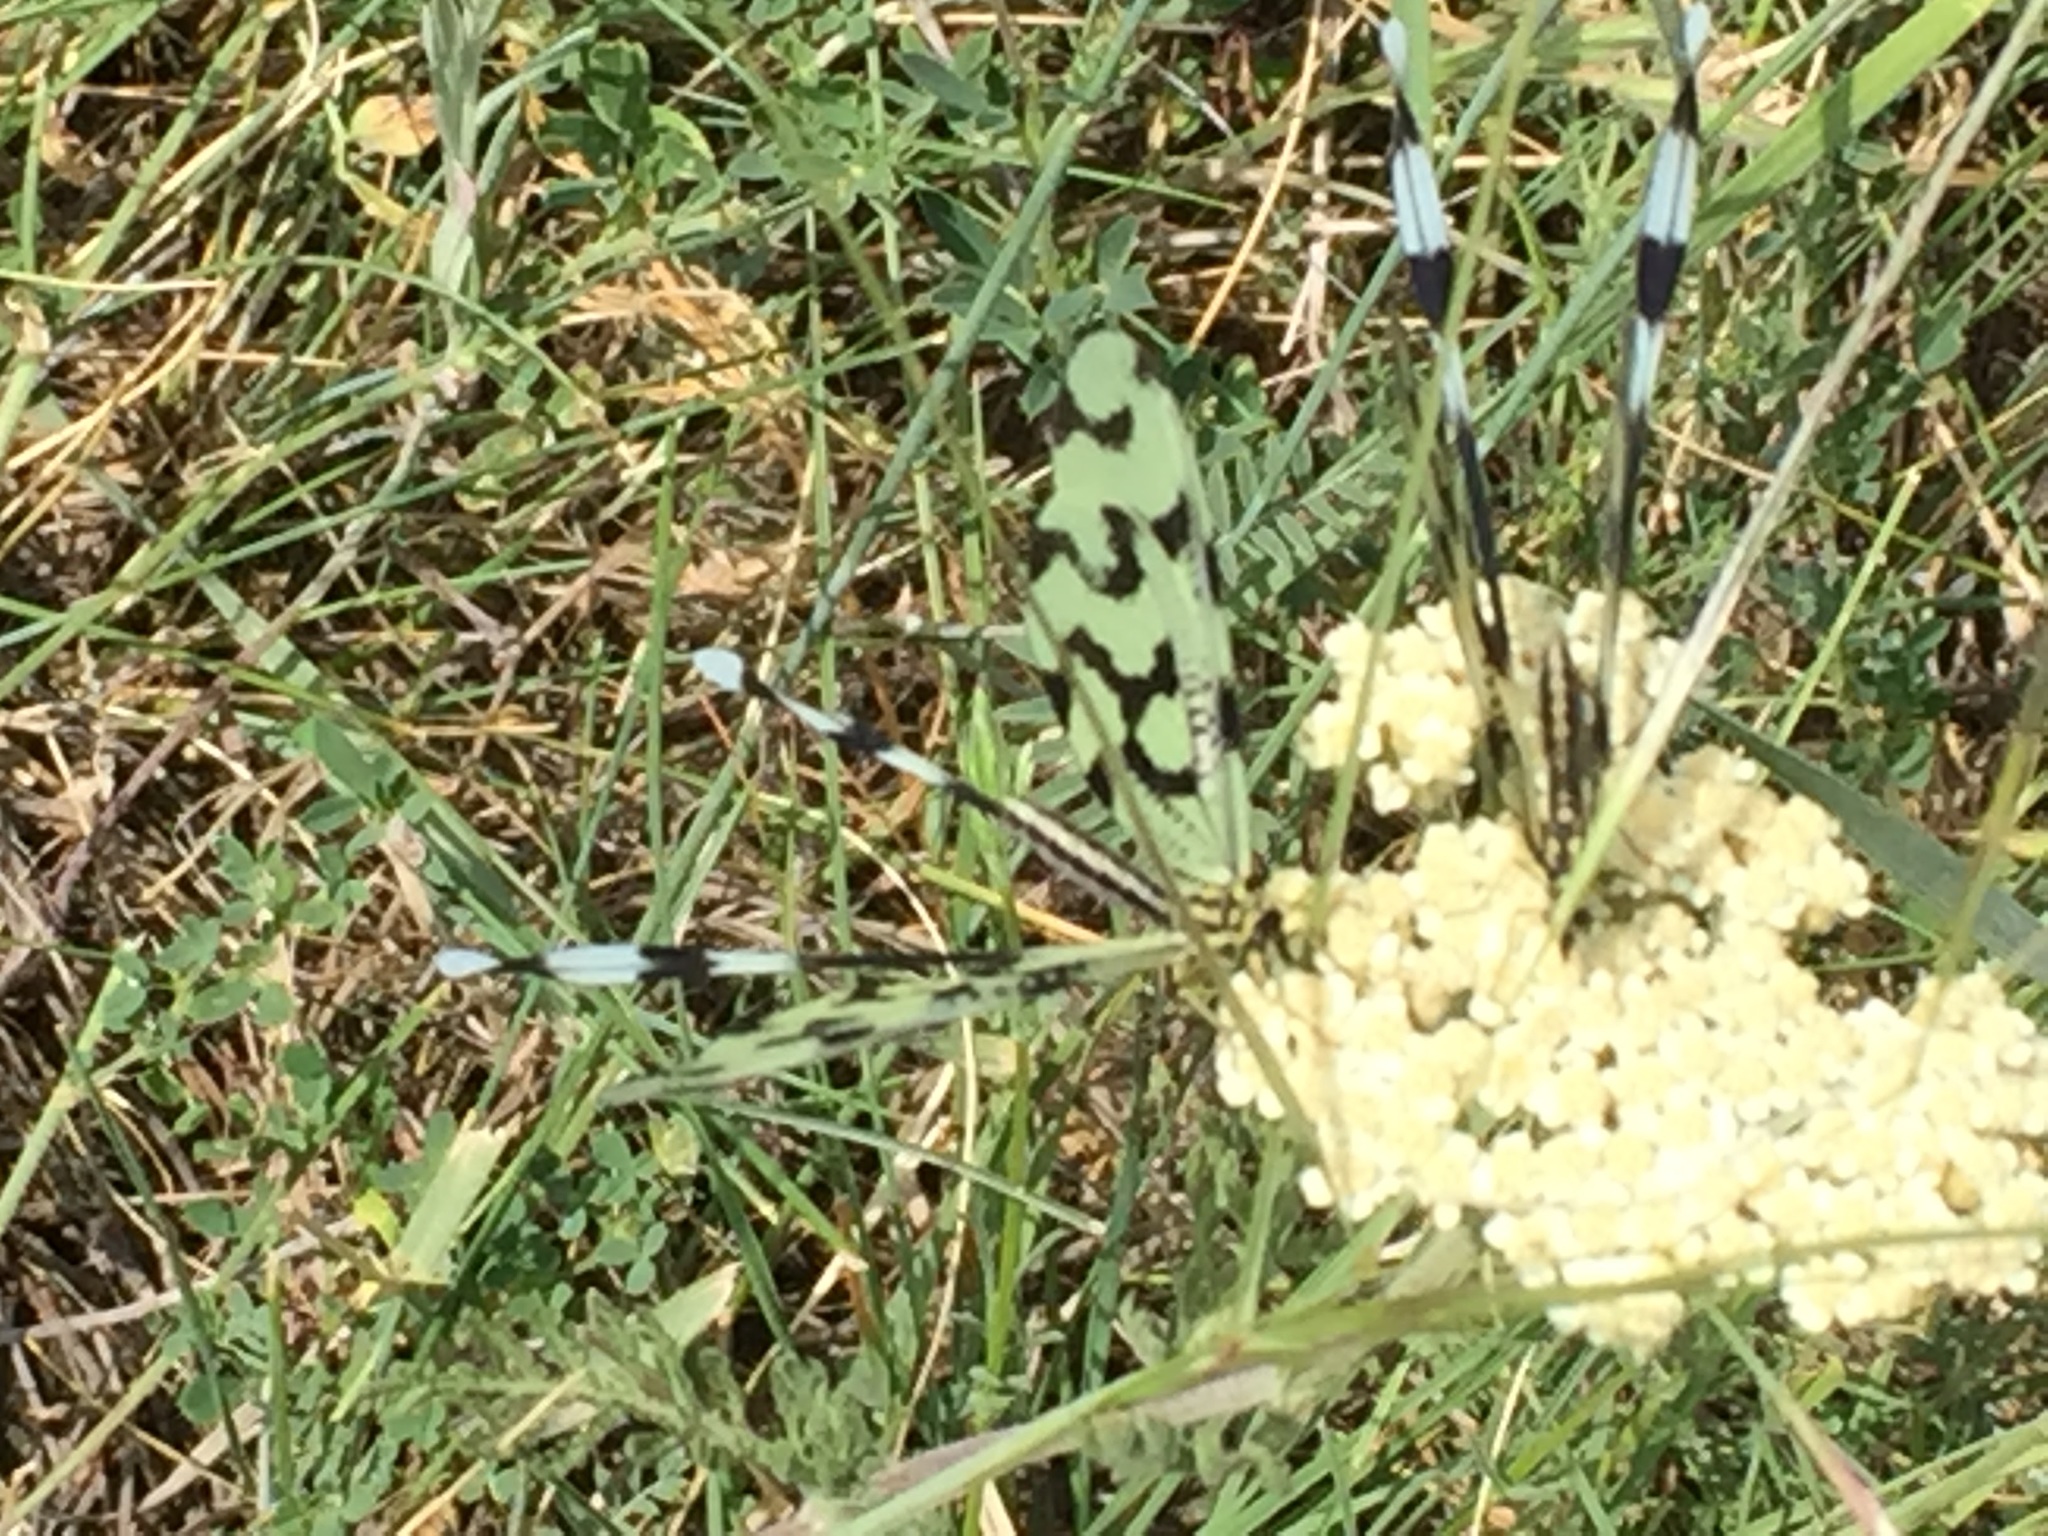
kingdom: Animalia
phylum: Arthropoda
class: Insecta
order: Neuroptera
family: Nemopteridae
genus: Nemoptera
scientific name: Nemoptera sinuata
